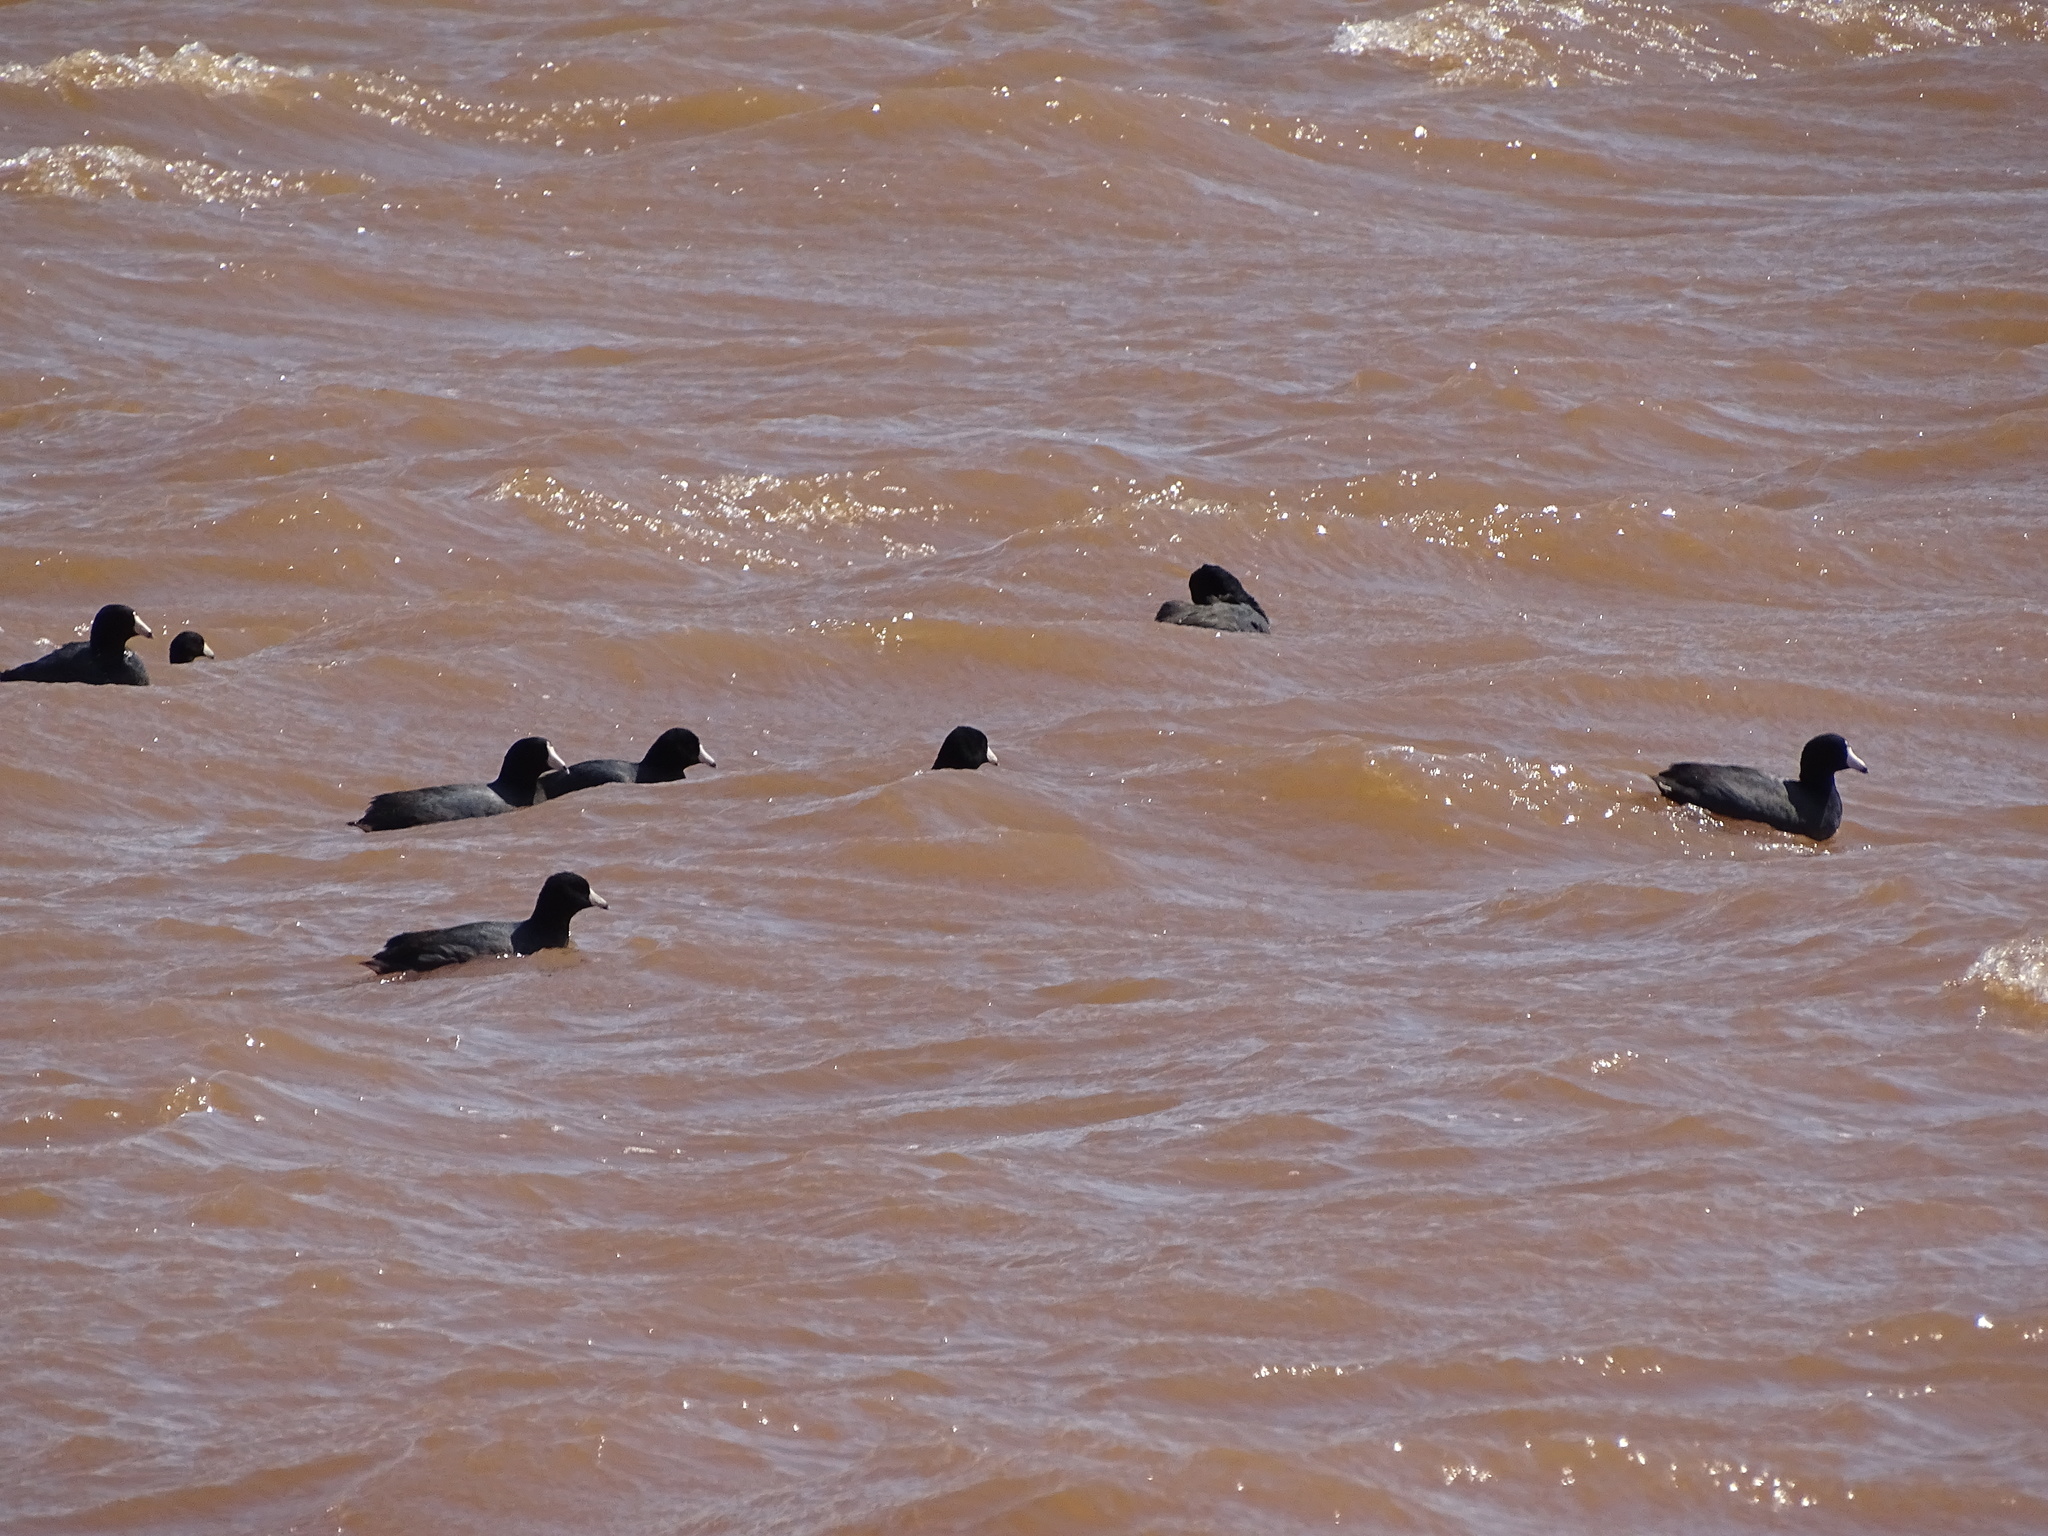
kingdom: Animalia
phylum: Chordata
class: Aves
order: Gruiformes
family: Rallidae
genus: Fulica
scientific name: Fulica americana
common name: American coot
